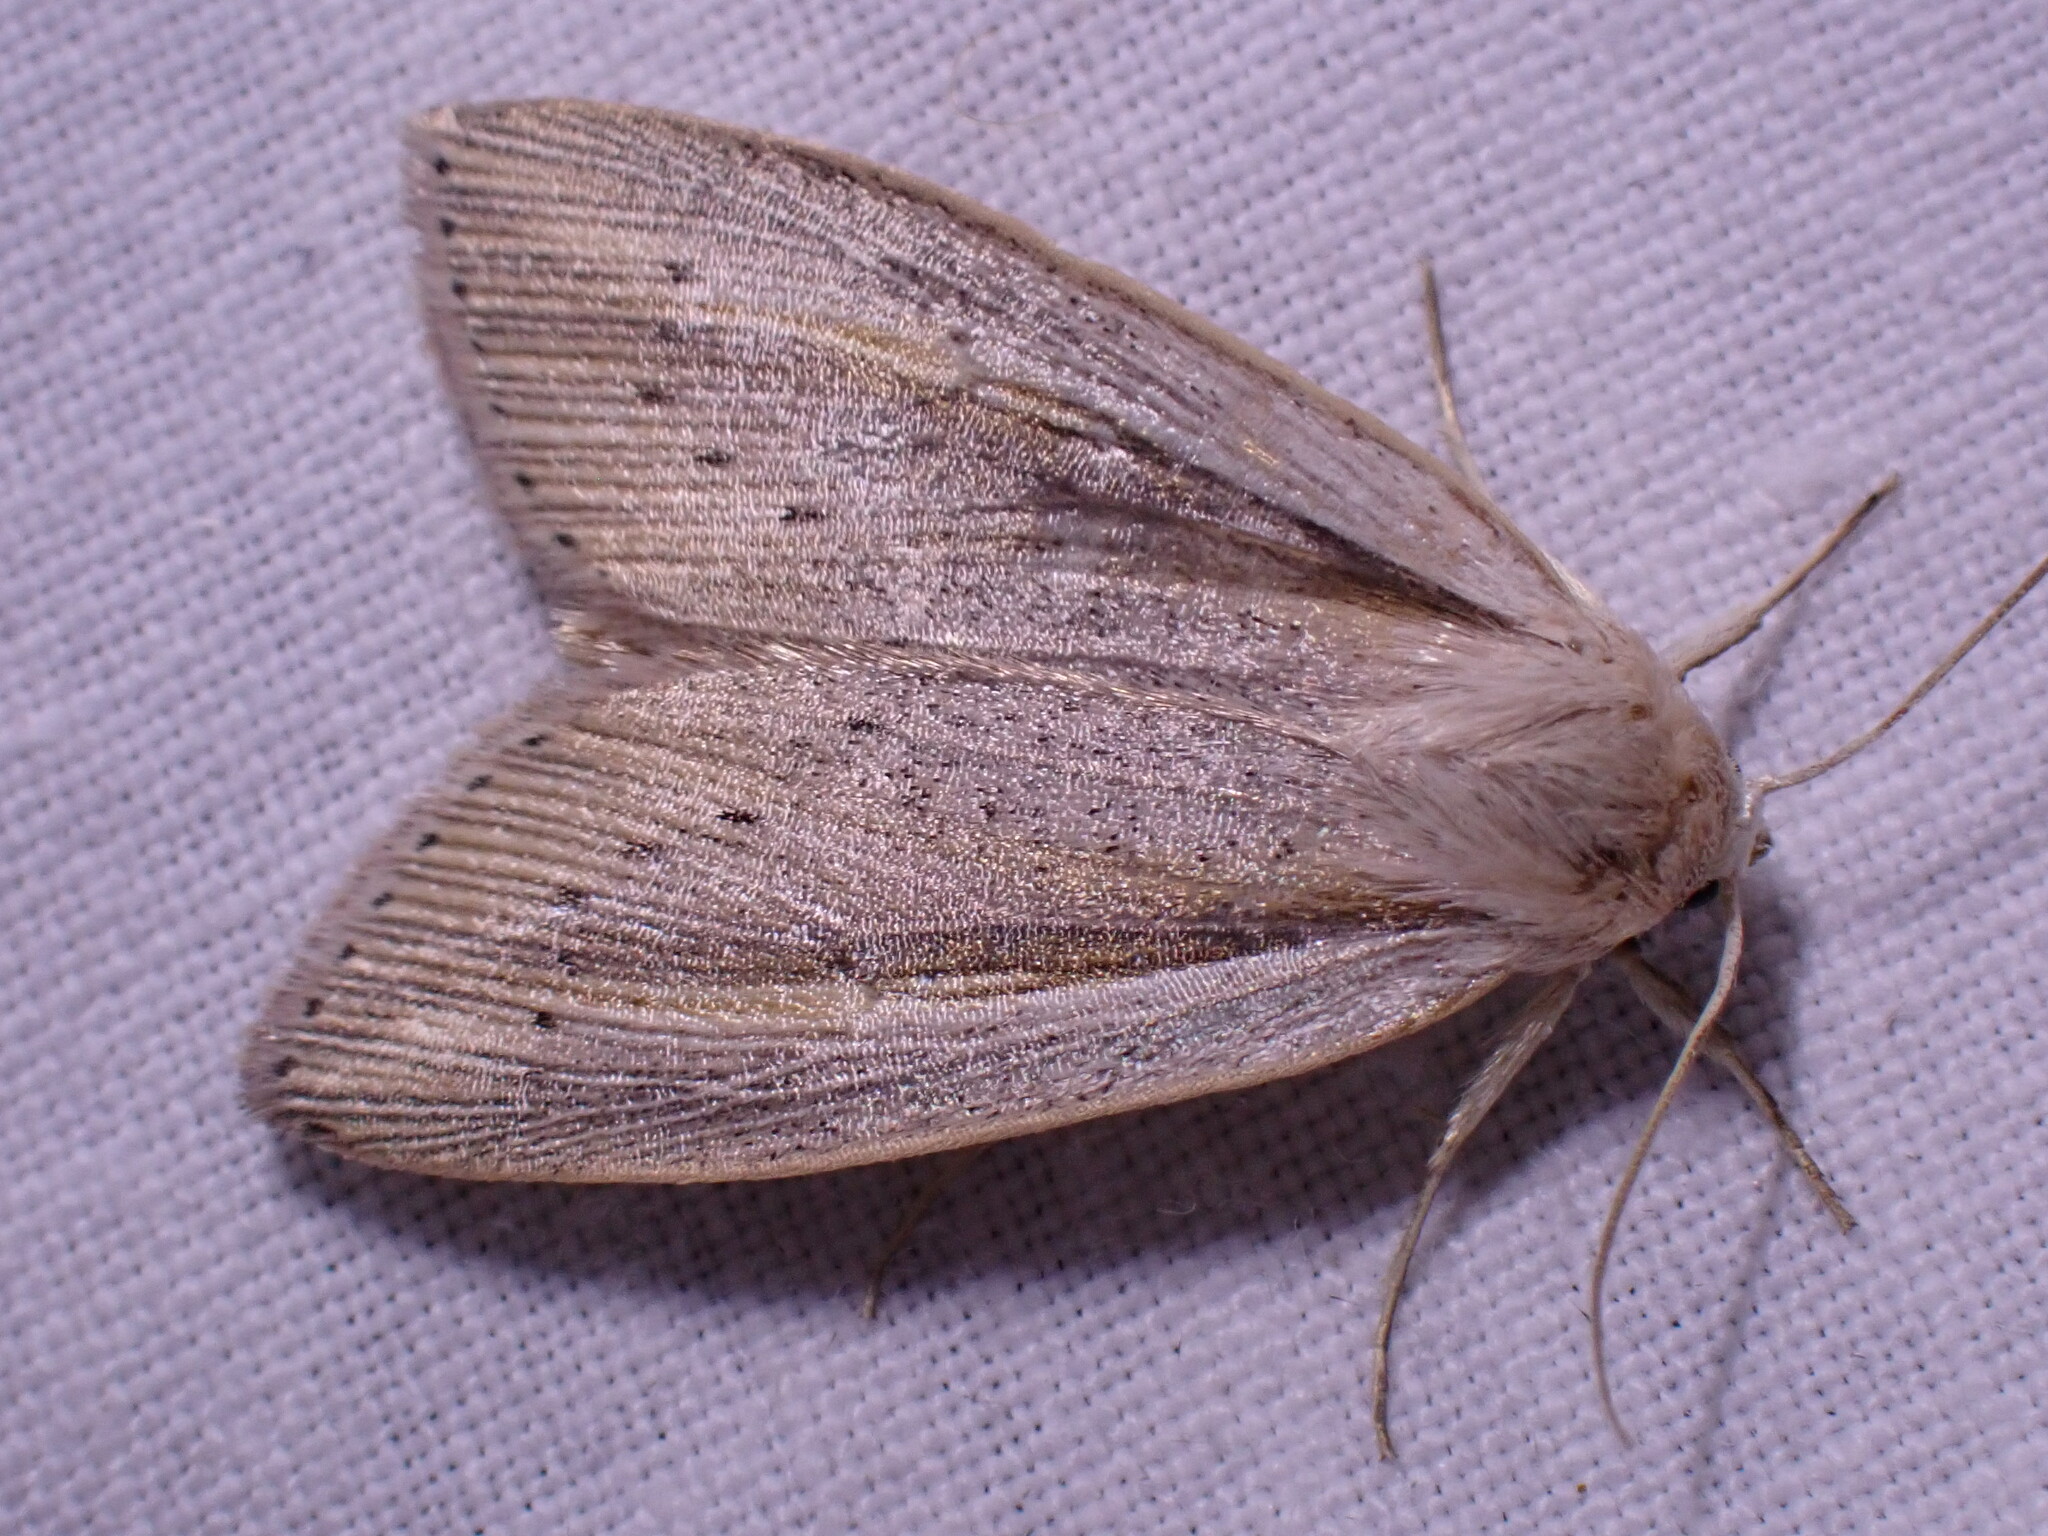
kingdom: Animalia
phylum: Arthropoda
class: Insecta
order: Lepidoptera
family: Noctuidae
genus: Senta
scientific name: Senta flammea
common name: Flame wainscot
